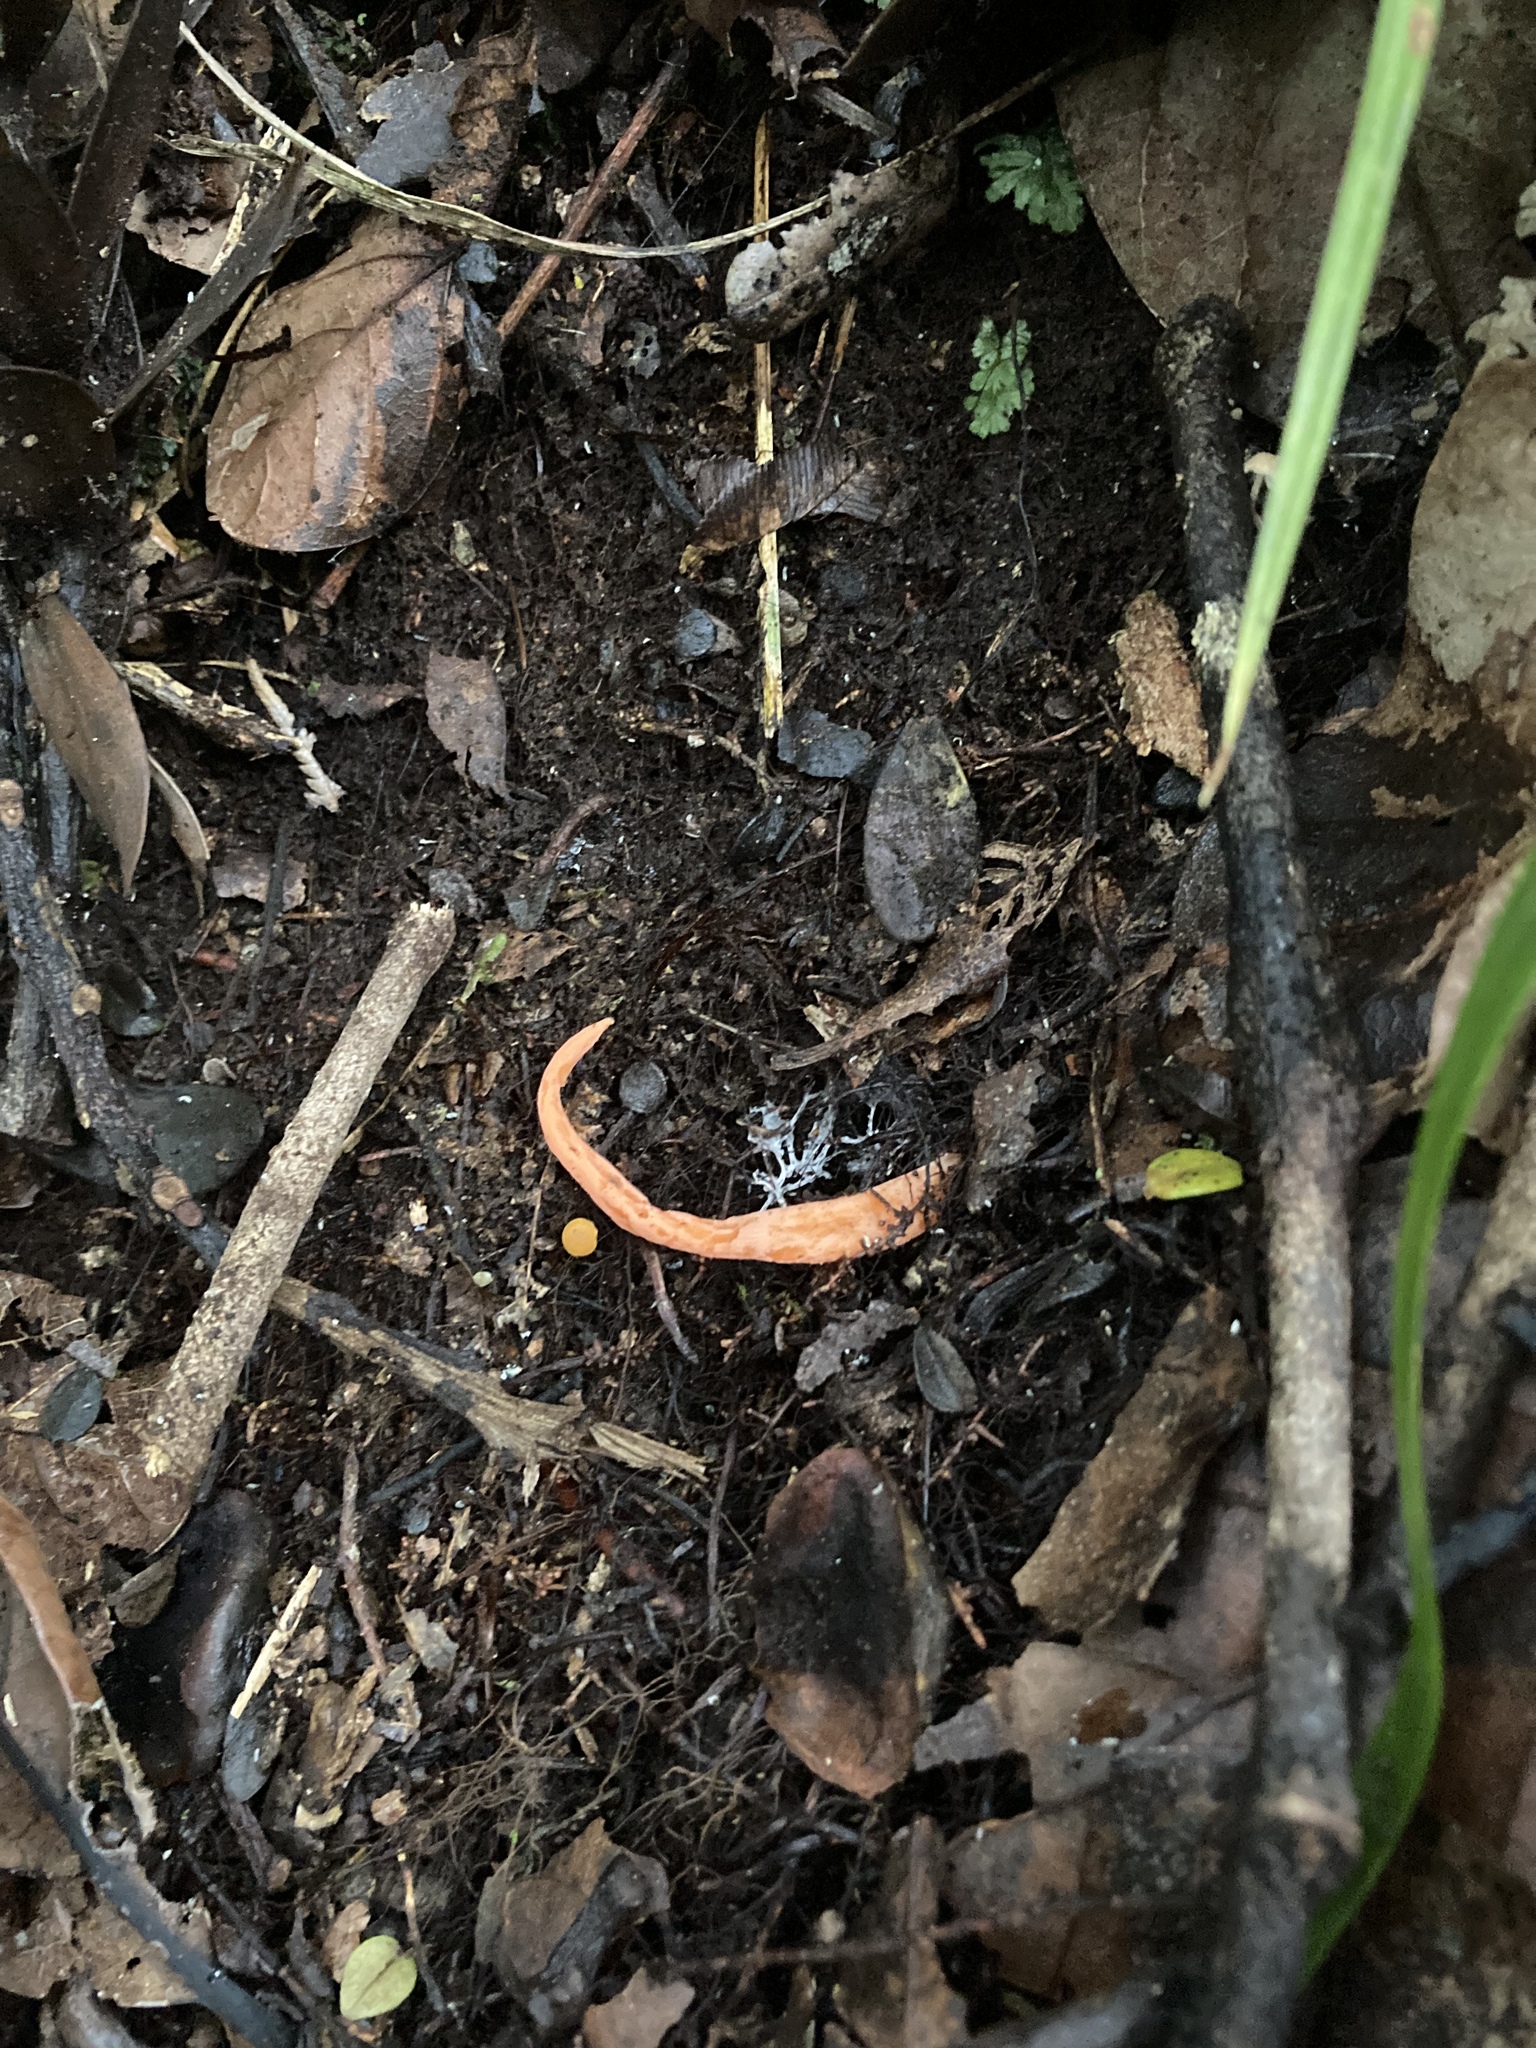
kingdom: Fungi
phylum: Basidiomycota
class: Agaricomycetes
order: Agaricales
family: Clavariaceae
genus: Clavulinopsis
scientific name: Clavulinopsis sulcata
